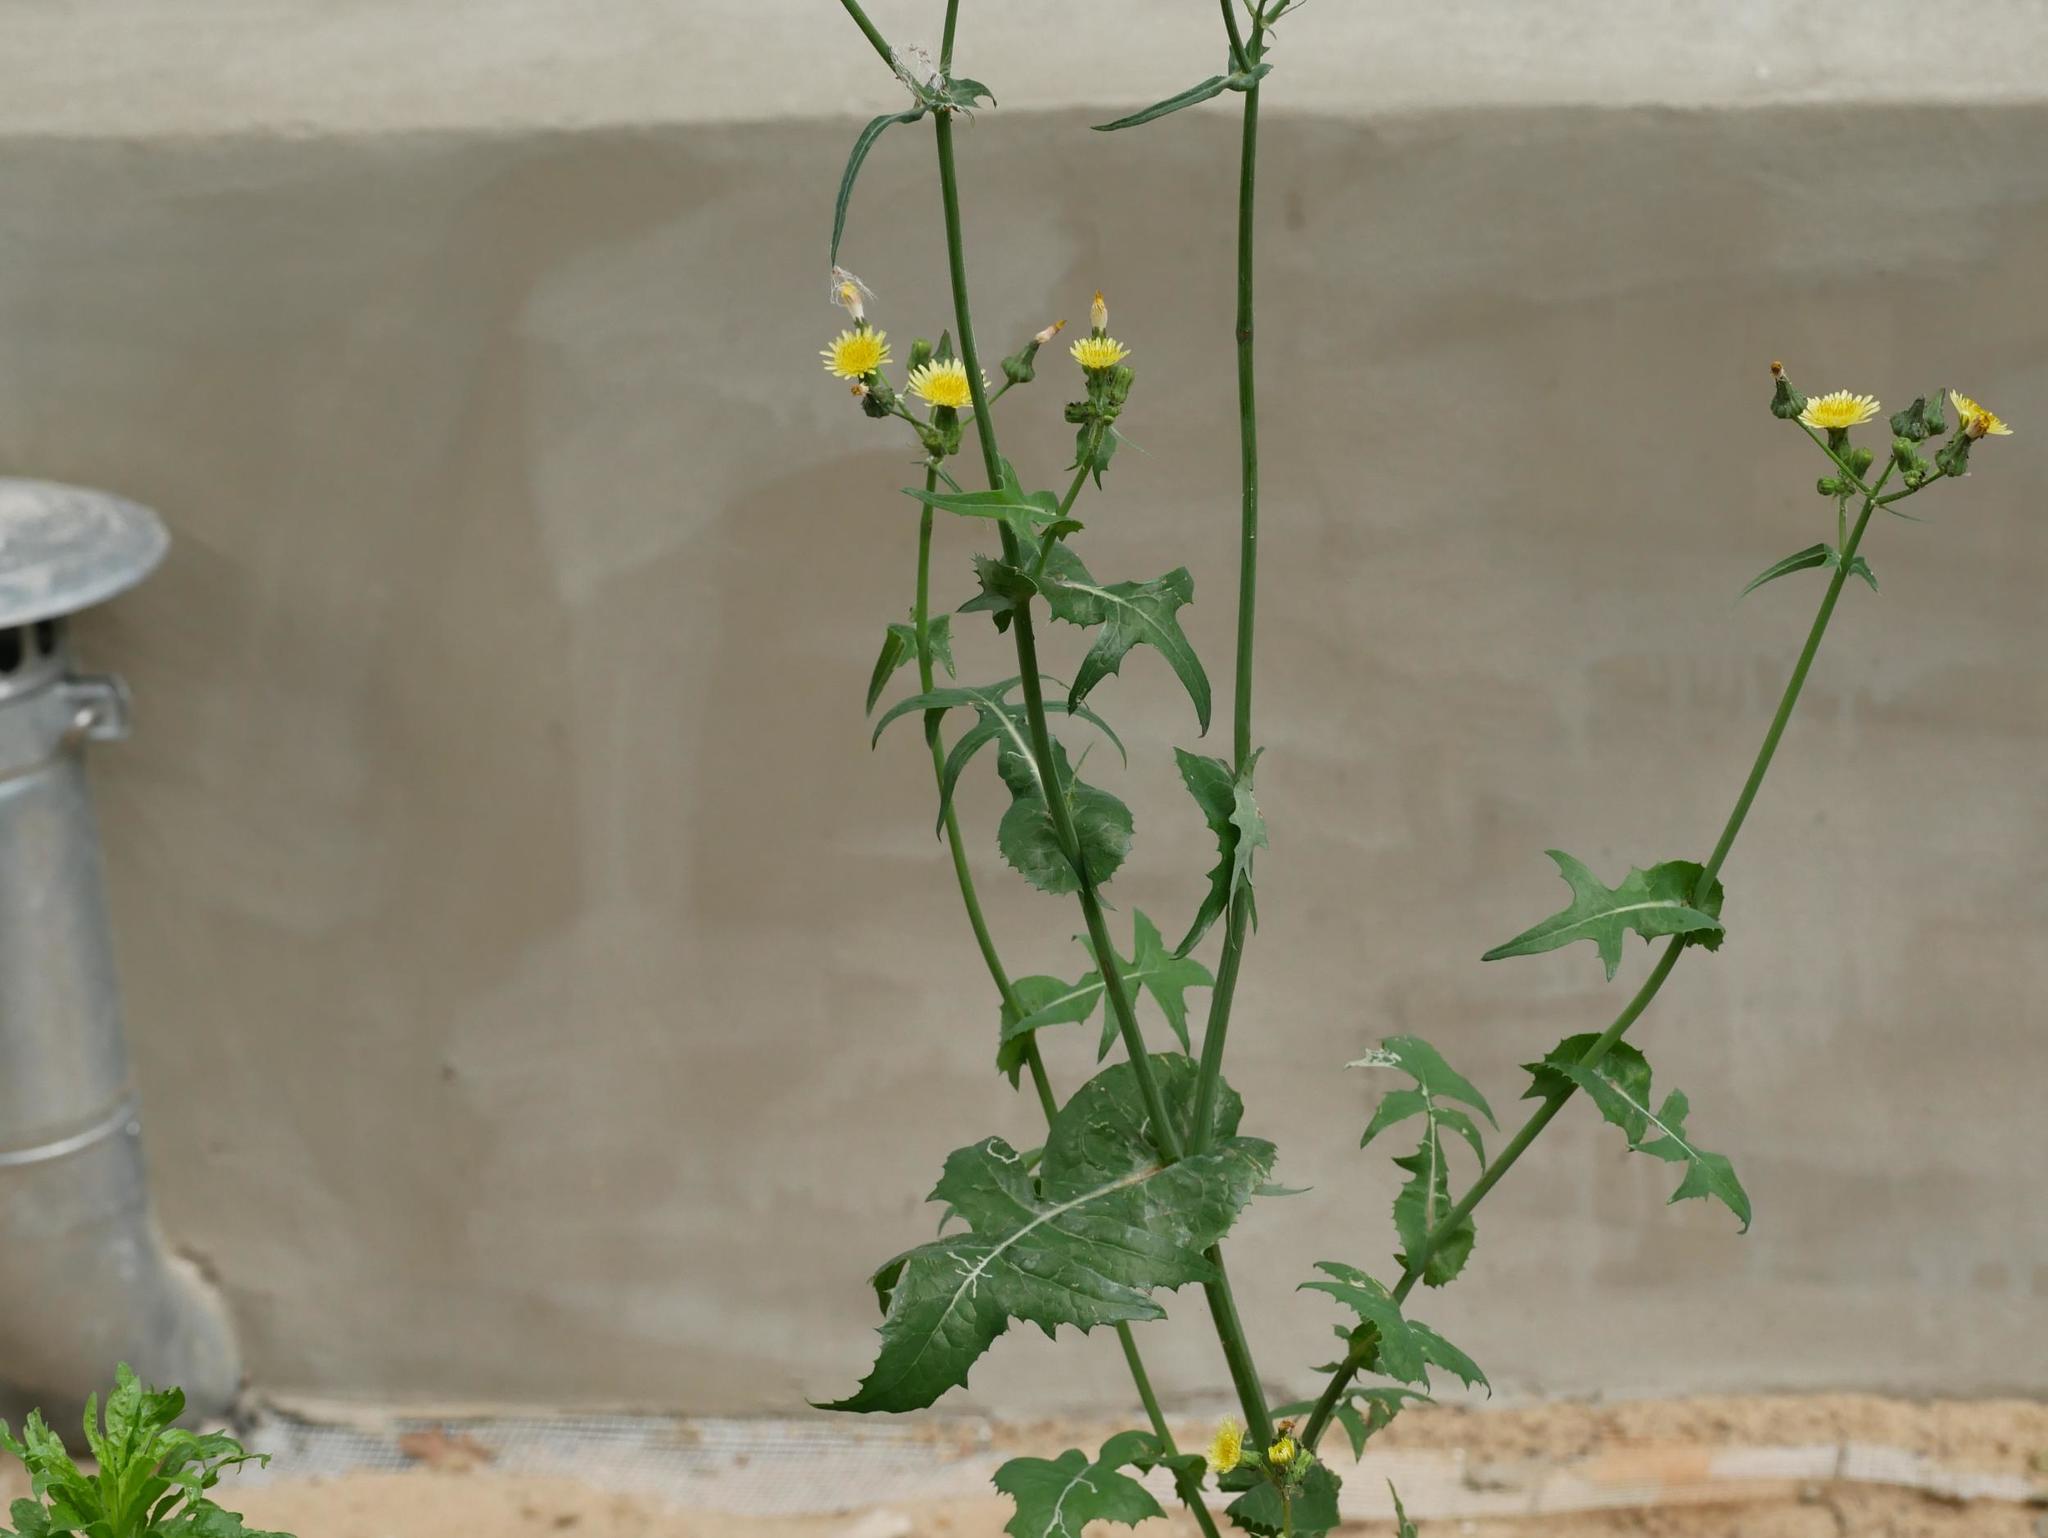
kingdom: Plantae
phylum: Tracheophyta
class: Magnoliopsida
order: Asterales
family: Asteraceae
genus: Sonchus
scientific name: Sonchus oleraceus
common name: Common sowthistle
